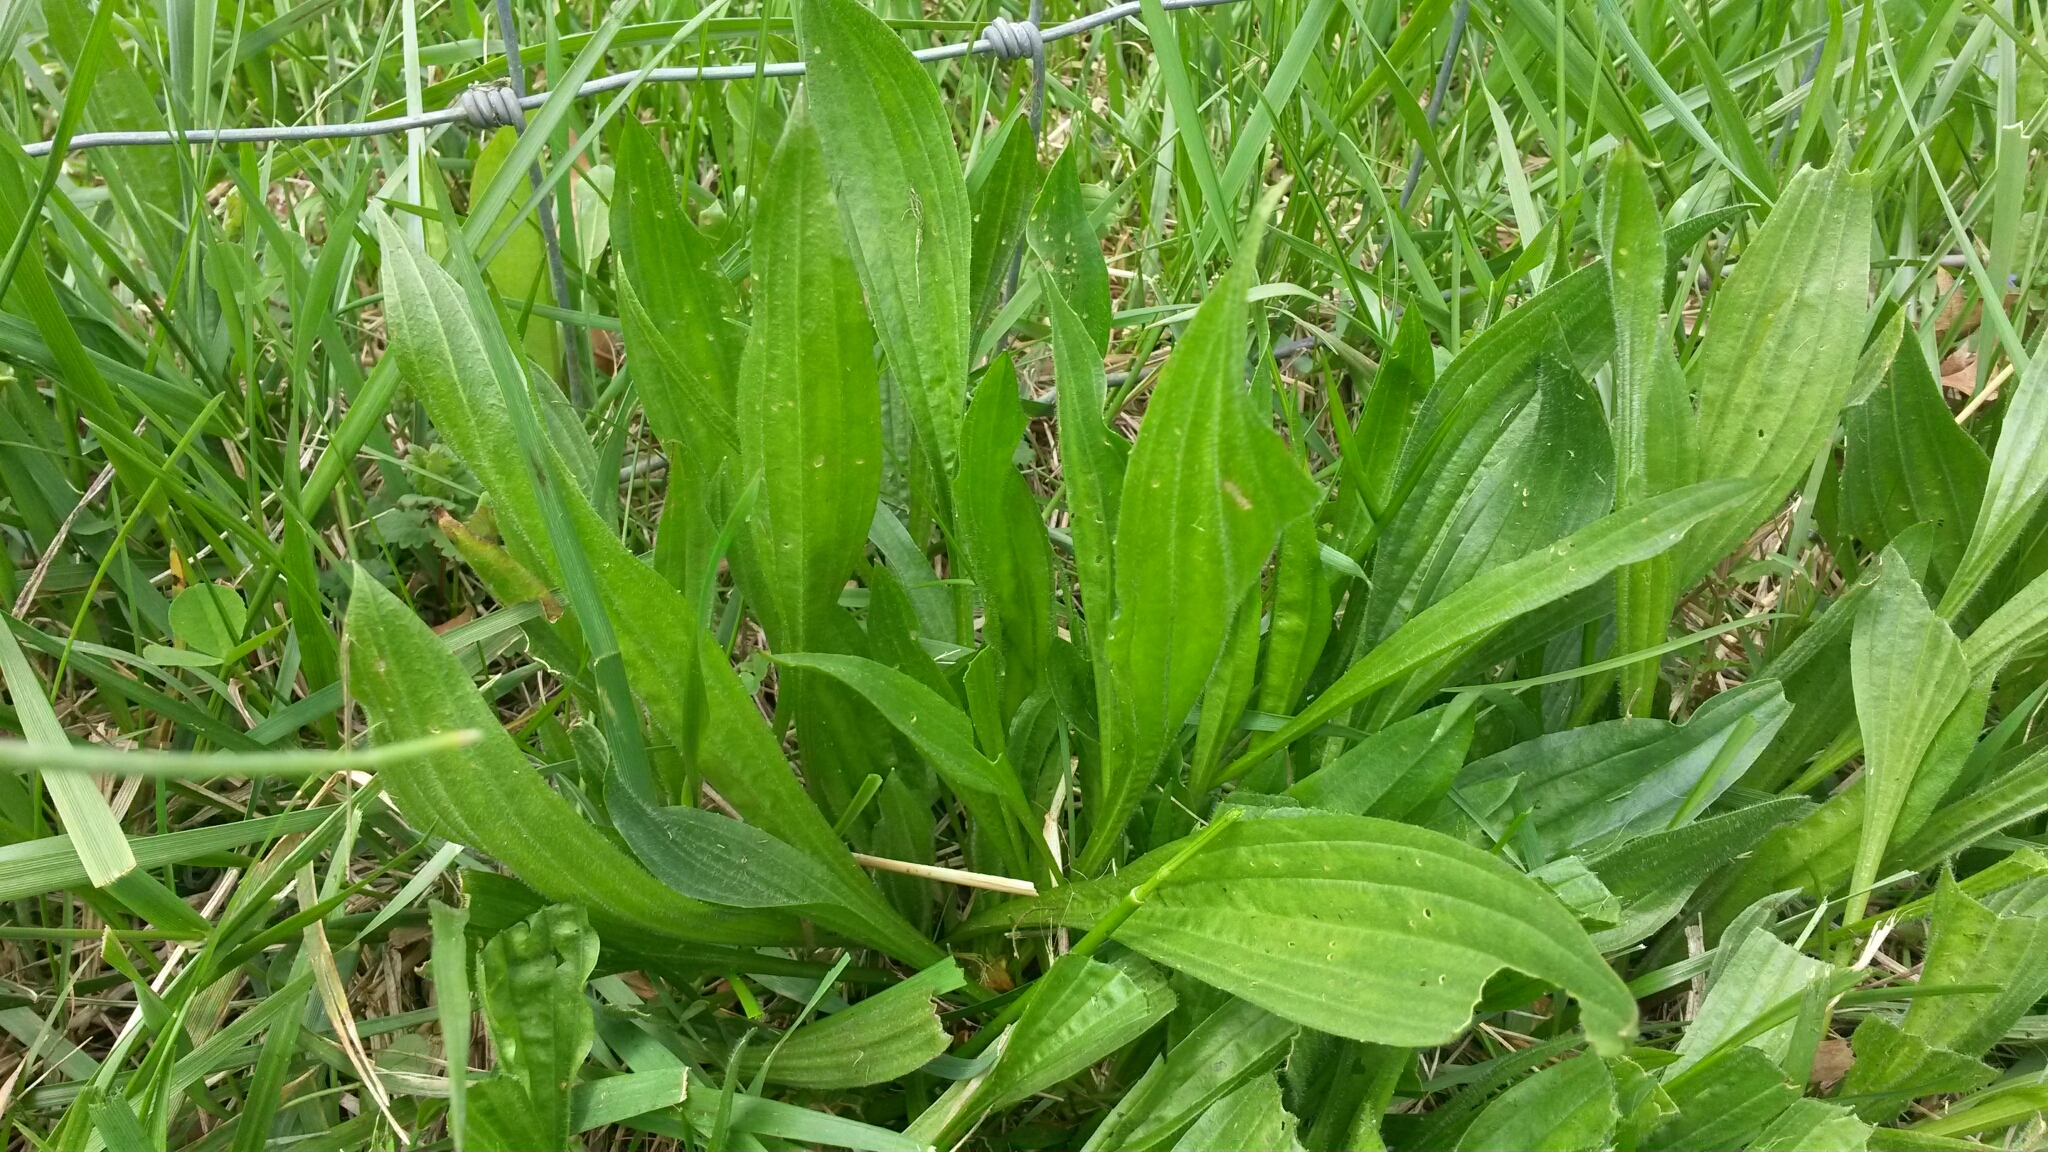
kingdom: Plantae
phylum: Tracheophyta
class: Magnoliopsida
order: Lamiales
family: Plantaginaceae
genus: Plantago
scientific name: Plantago lanceolata
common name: Ribwort plantain
